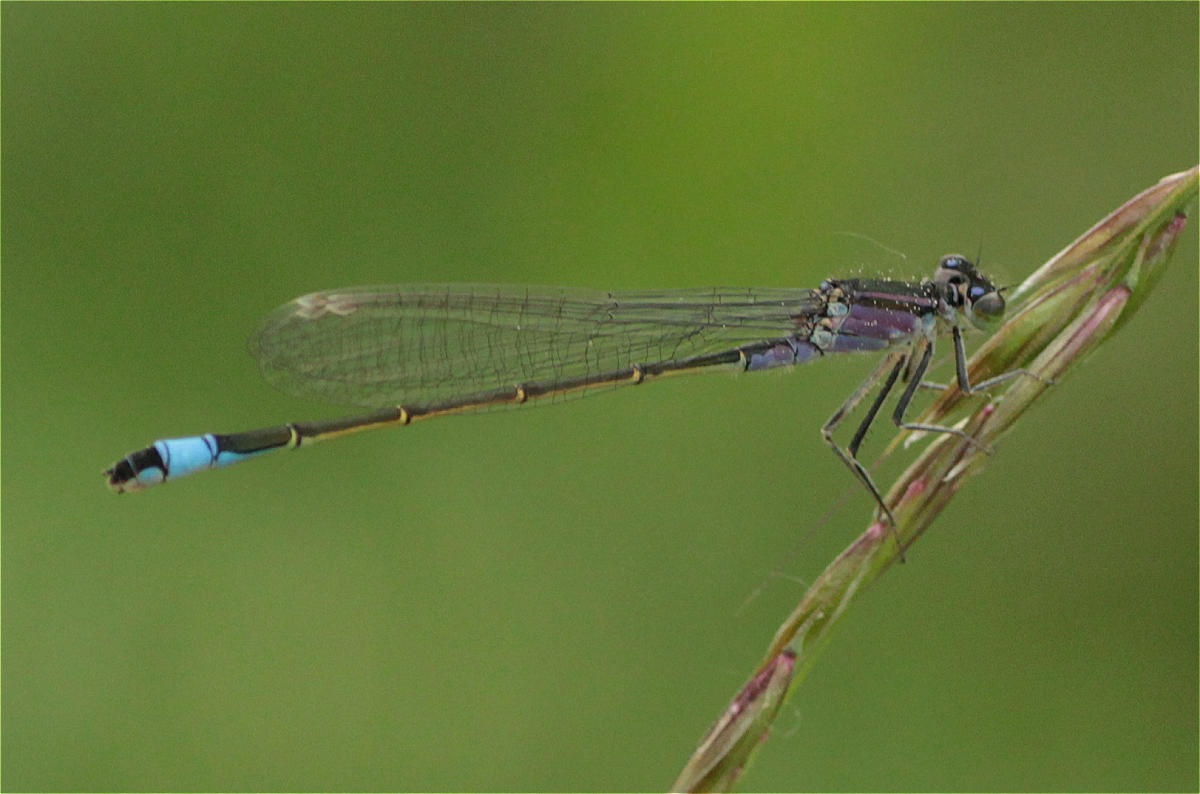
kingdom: Animalia
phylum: Arthropoda
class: Insecta
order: Odonata
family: Coenagrionidae
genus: Ischnura
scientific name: Ischnura elegans
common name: Blue-tailed damselfly
